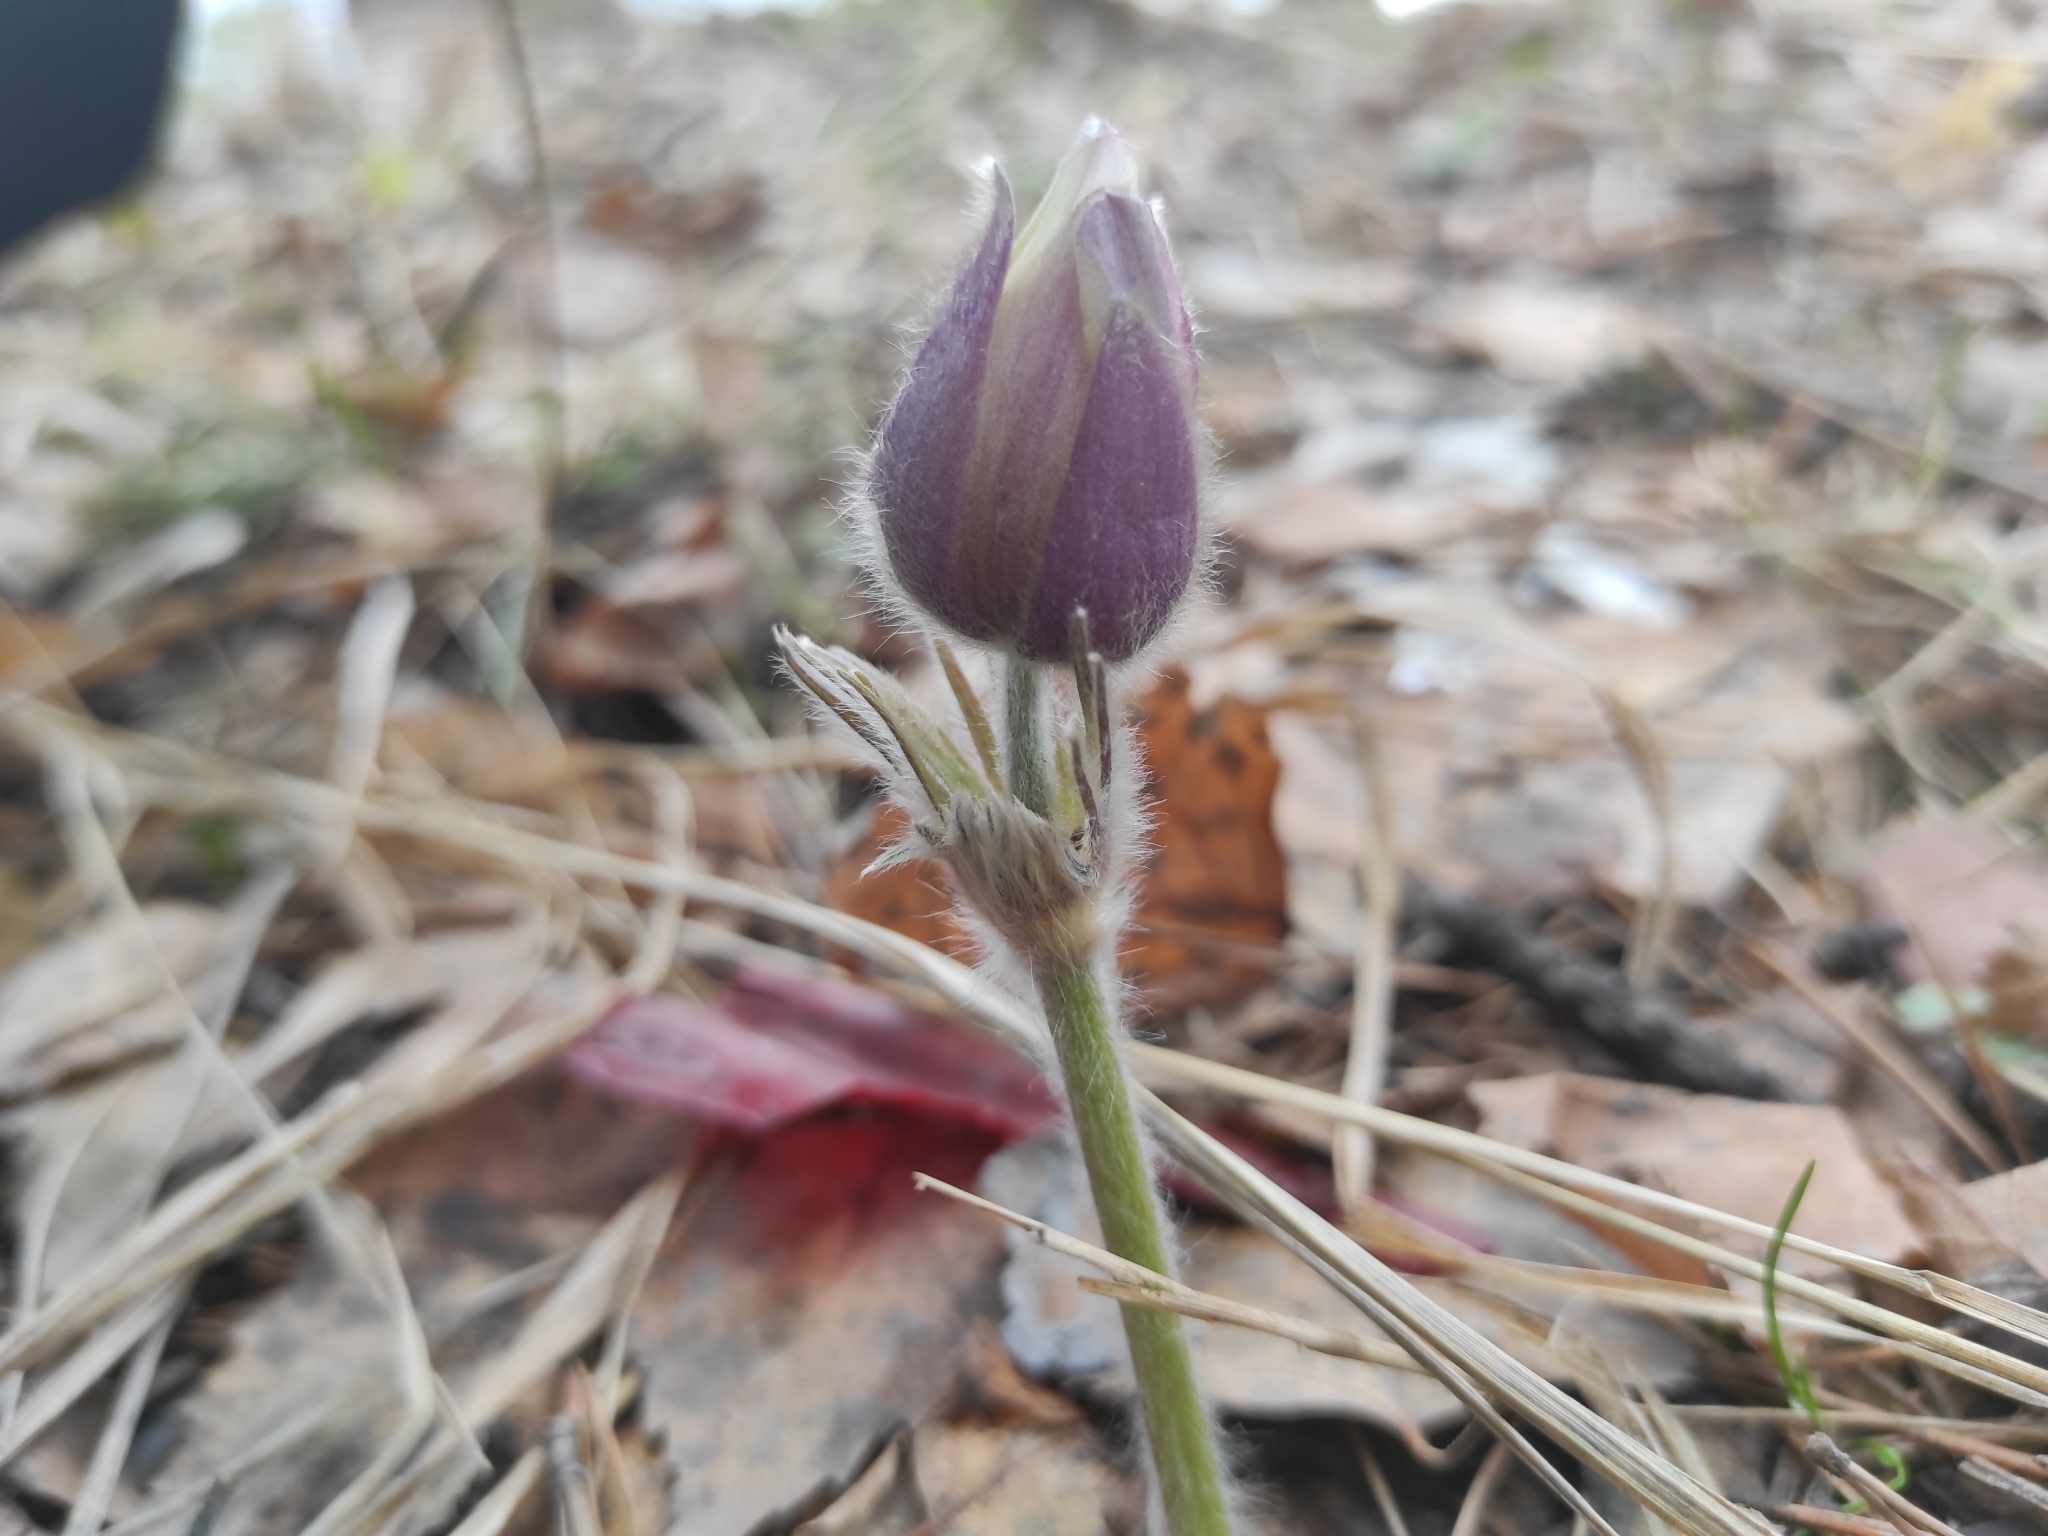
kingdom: Plantae
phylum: Tracheophyta
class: Magnoliopsida
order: Ranunculales
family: Ranunculaceae
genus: Pulsatilla
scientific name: Pulsatilla patens
